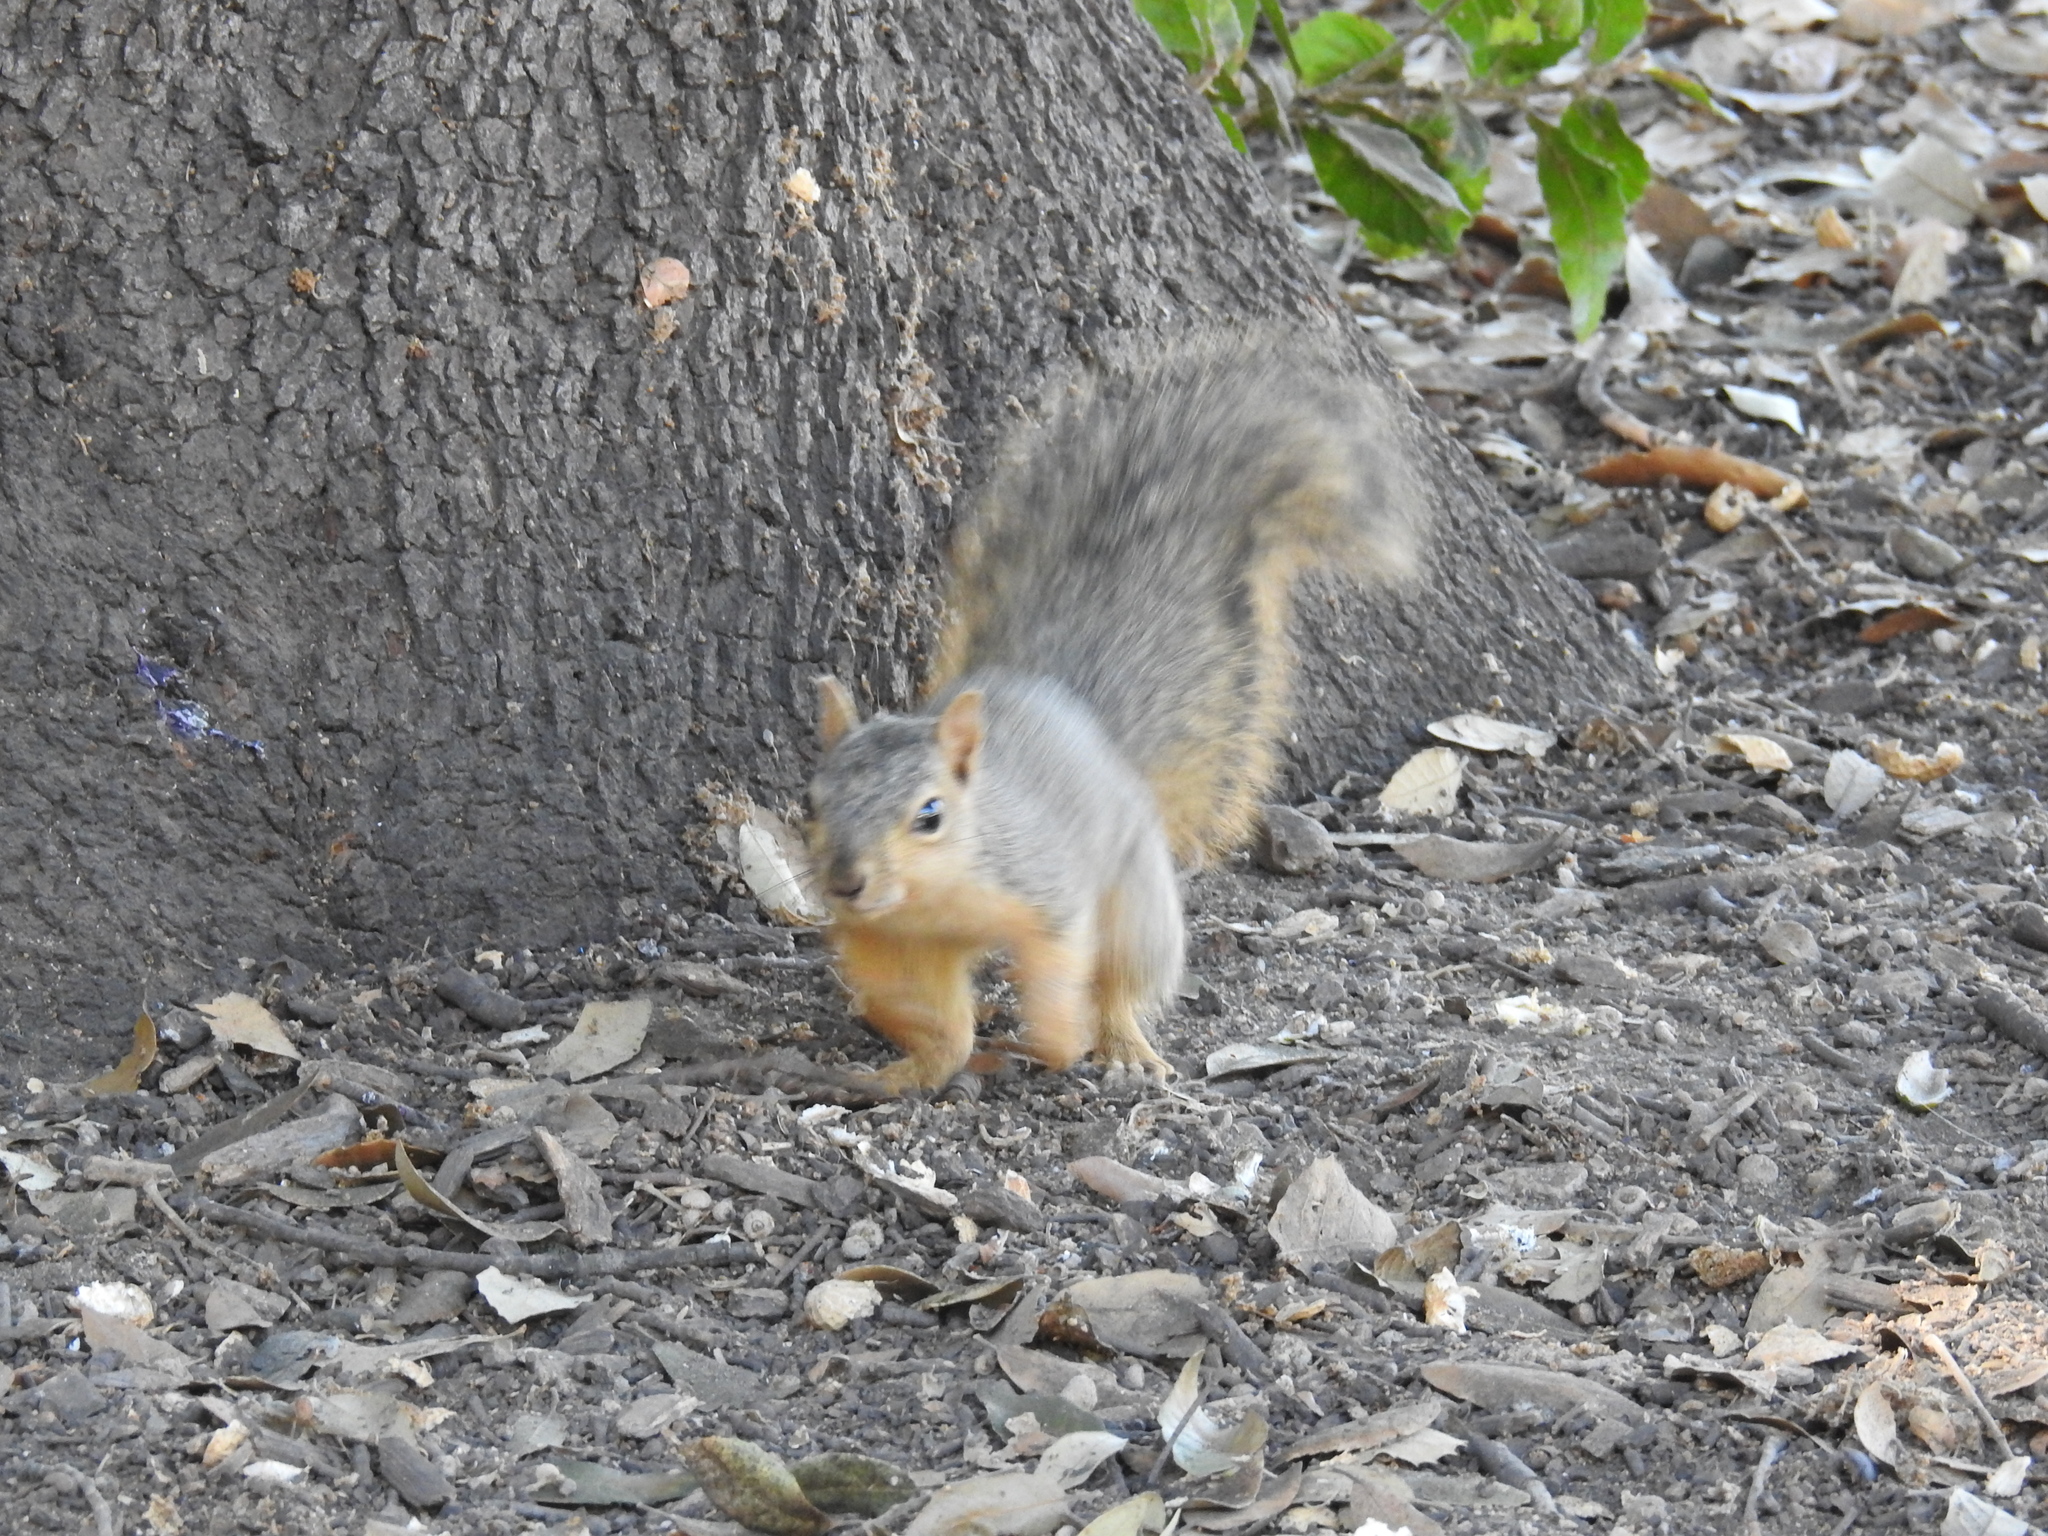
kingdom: Animalia
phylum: Chordata
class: Mammalia
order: Rodentia
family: Sciuridae
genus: Sciurus
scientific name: Sciurus niger
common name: Fox squirrel
